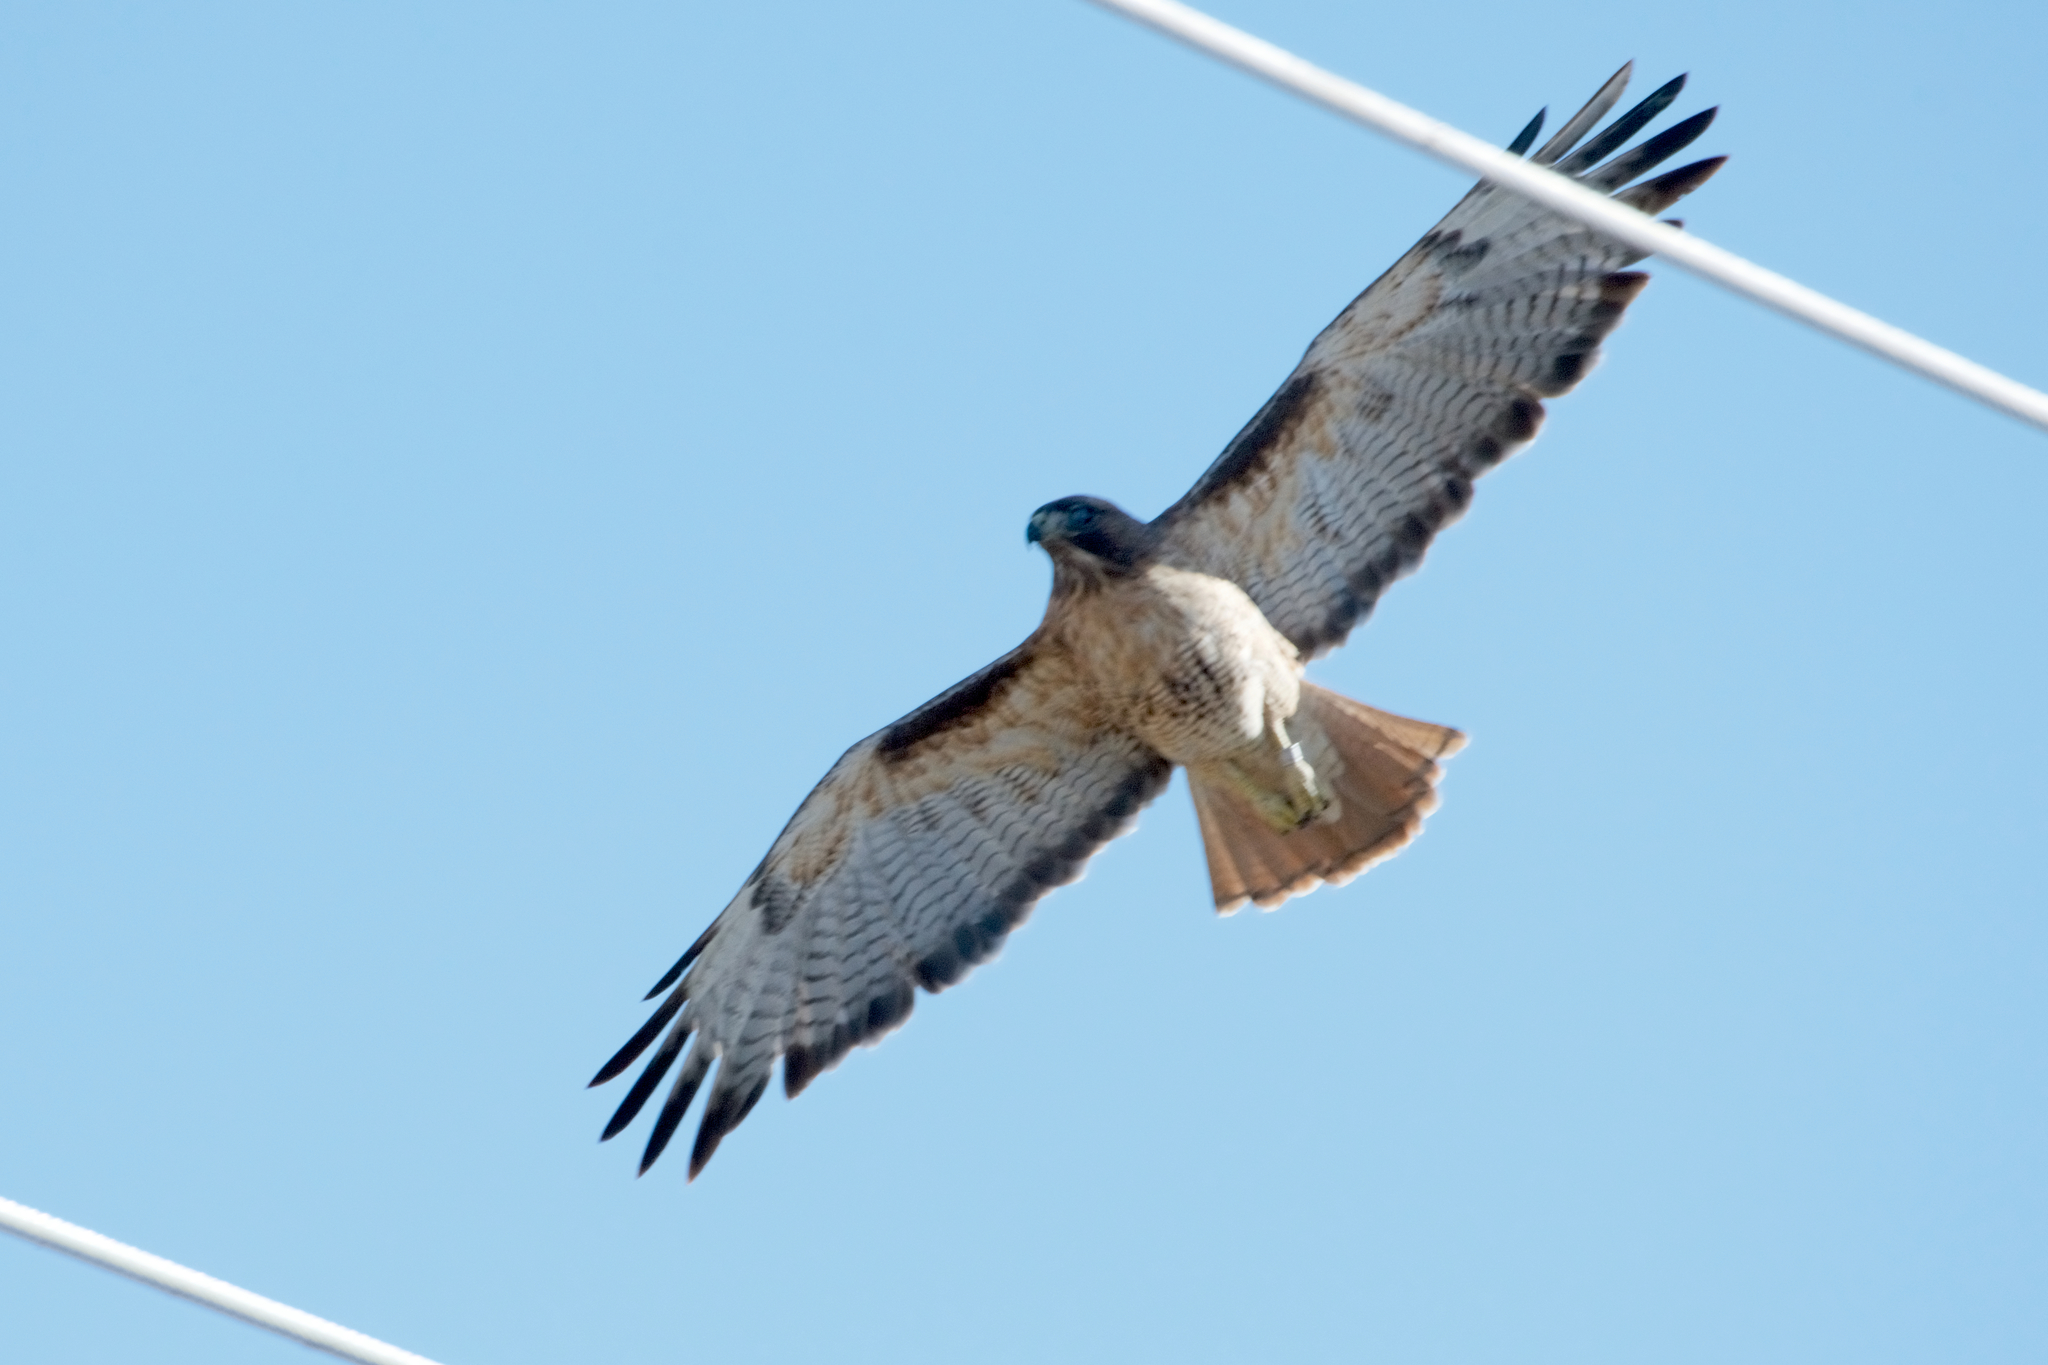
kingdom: Animalia
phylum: Chordata
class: Aves
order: Accipitriformes
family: Accipitridae
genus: Buteo
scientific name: Buteo jamaicensis
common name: Red-tailed hawk
